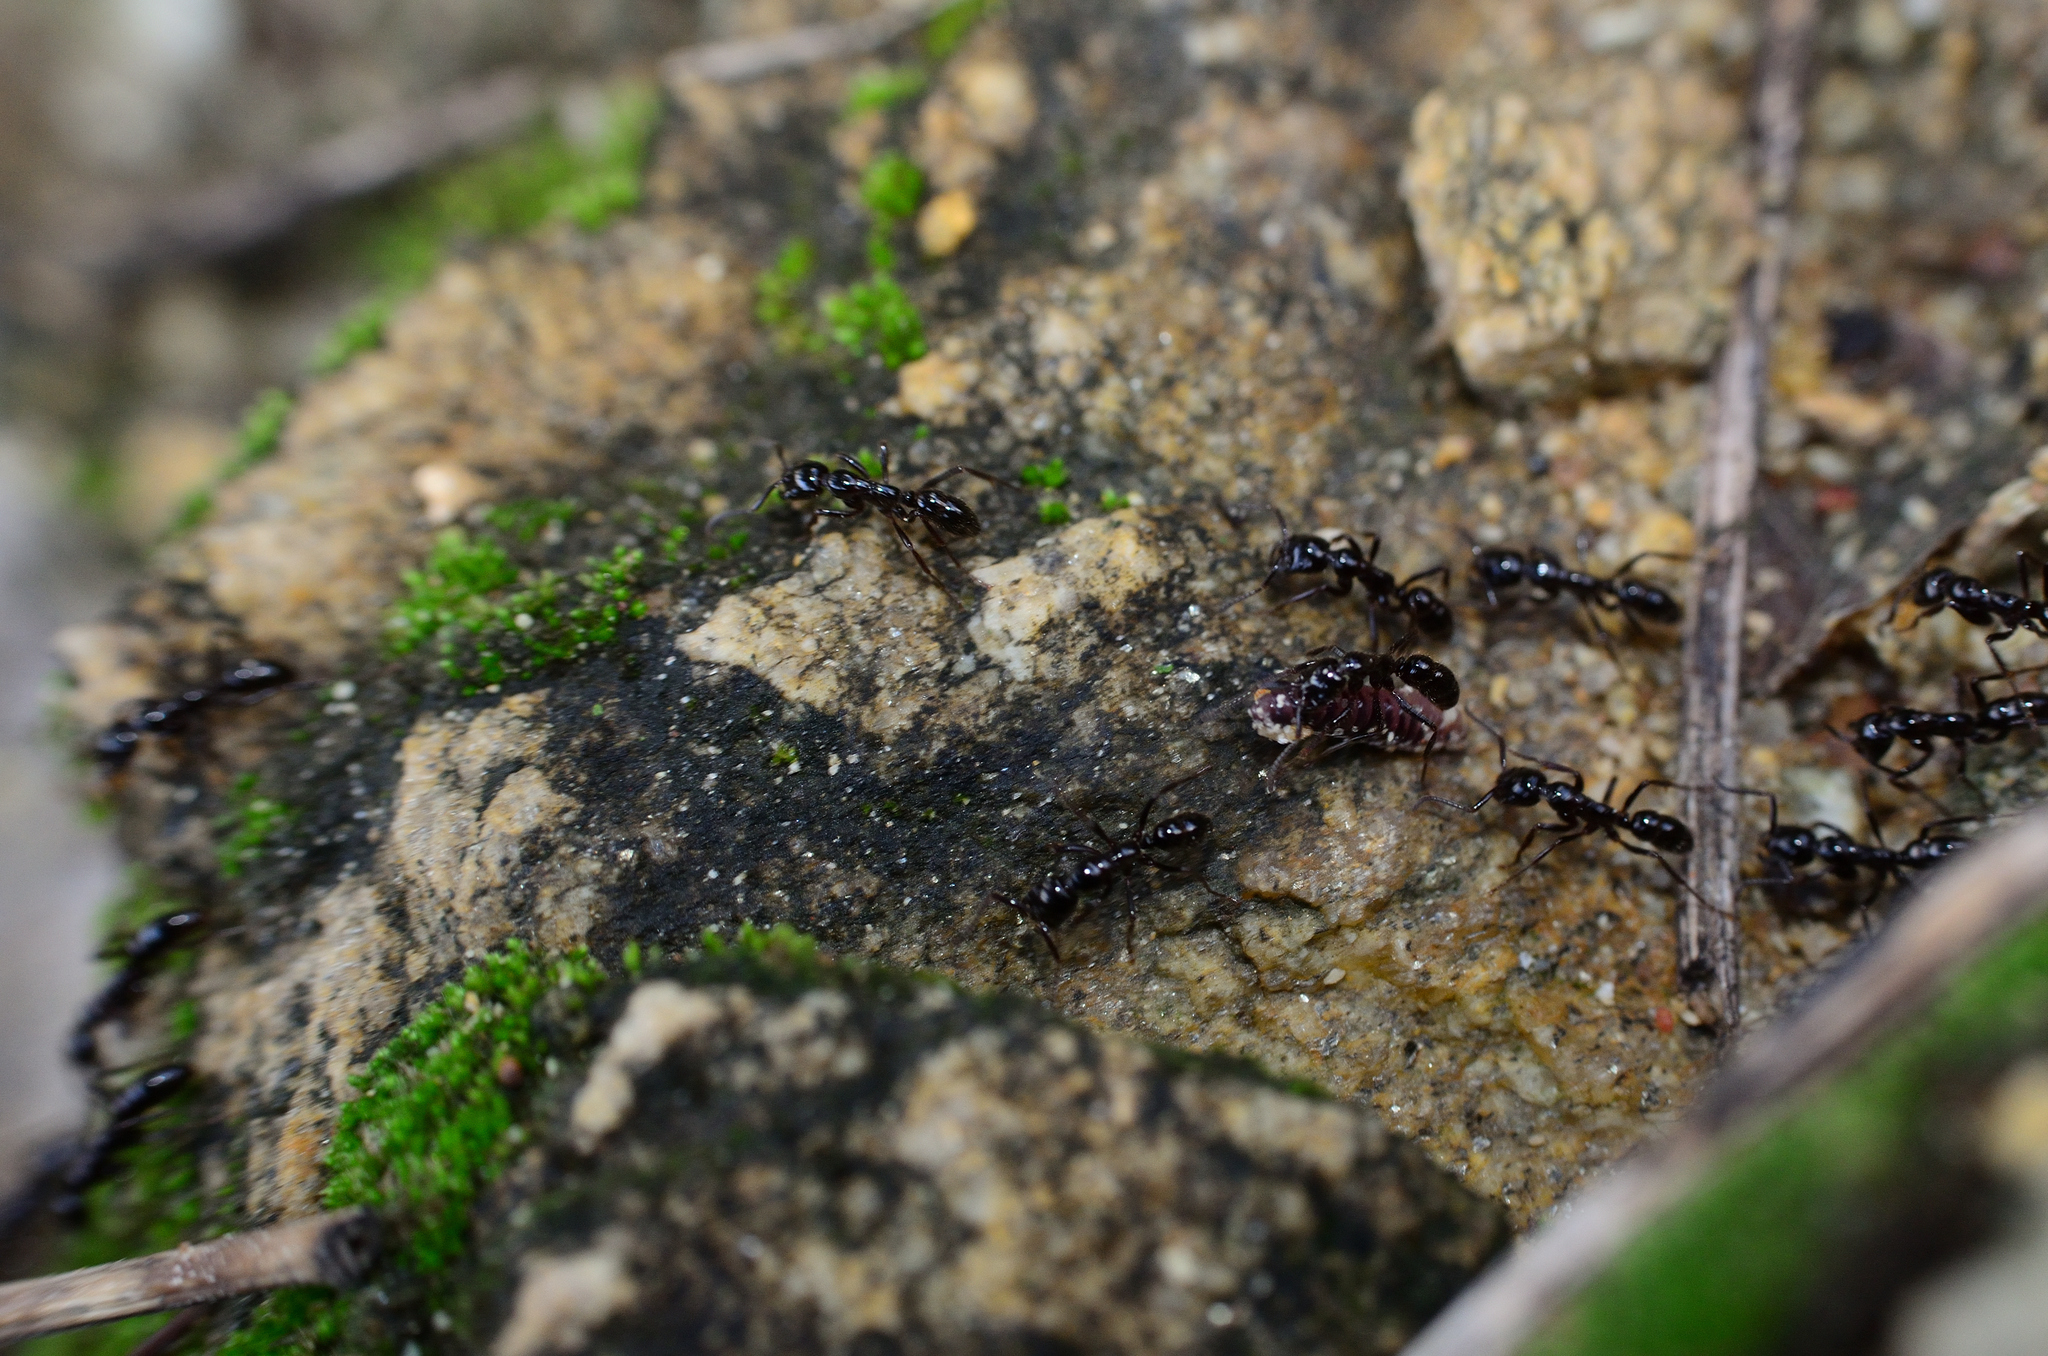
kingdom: Animalia
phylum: Arthropoda
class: Insecta
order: Hymenoptera
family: Formicidae
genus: Leptogenys
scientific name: Leptogenys processionalis
